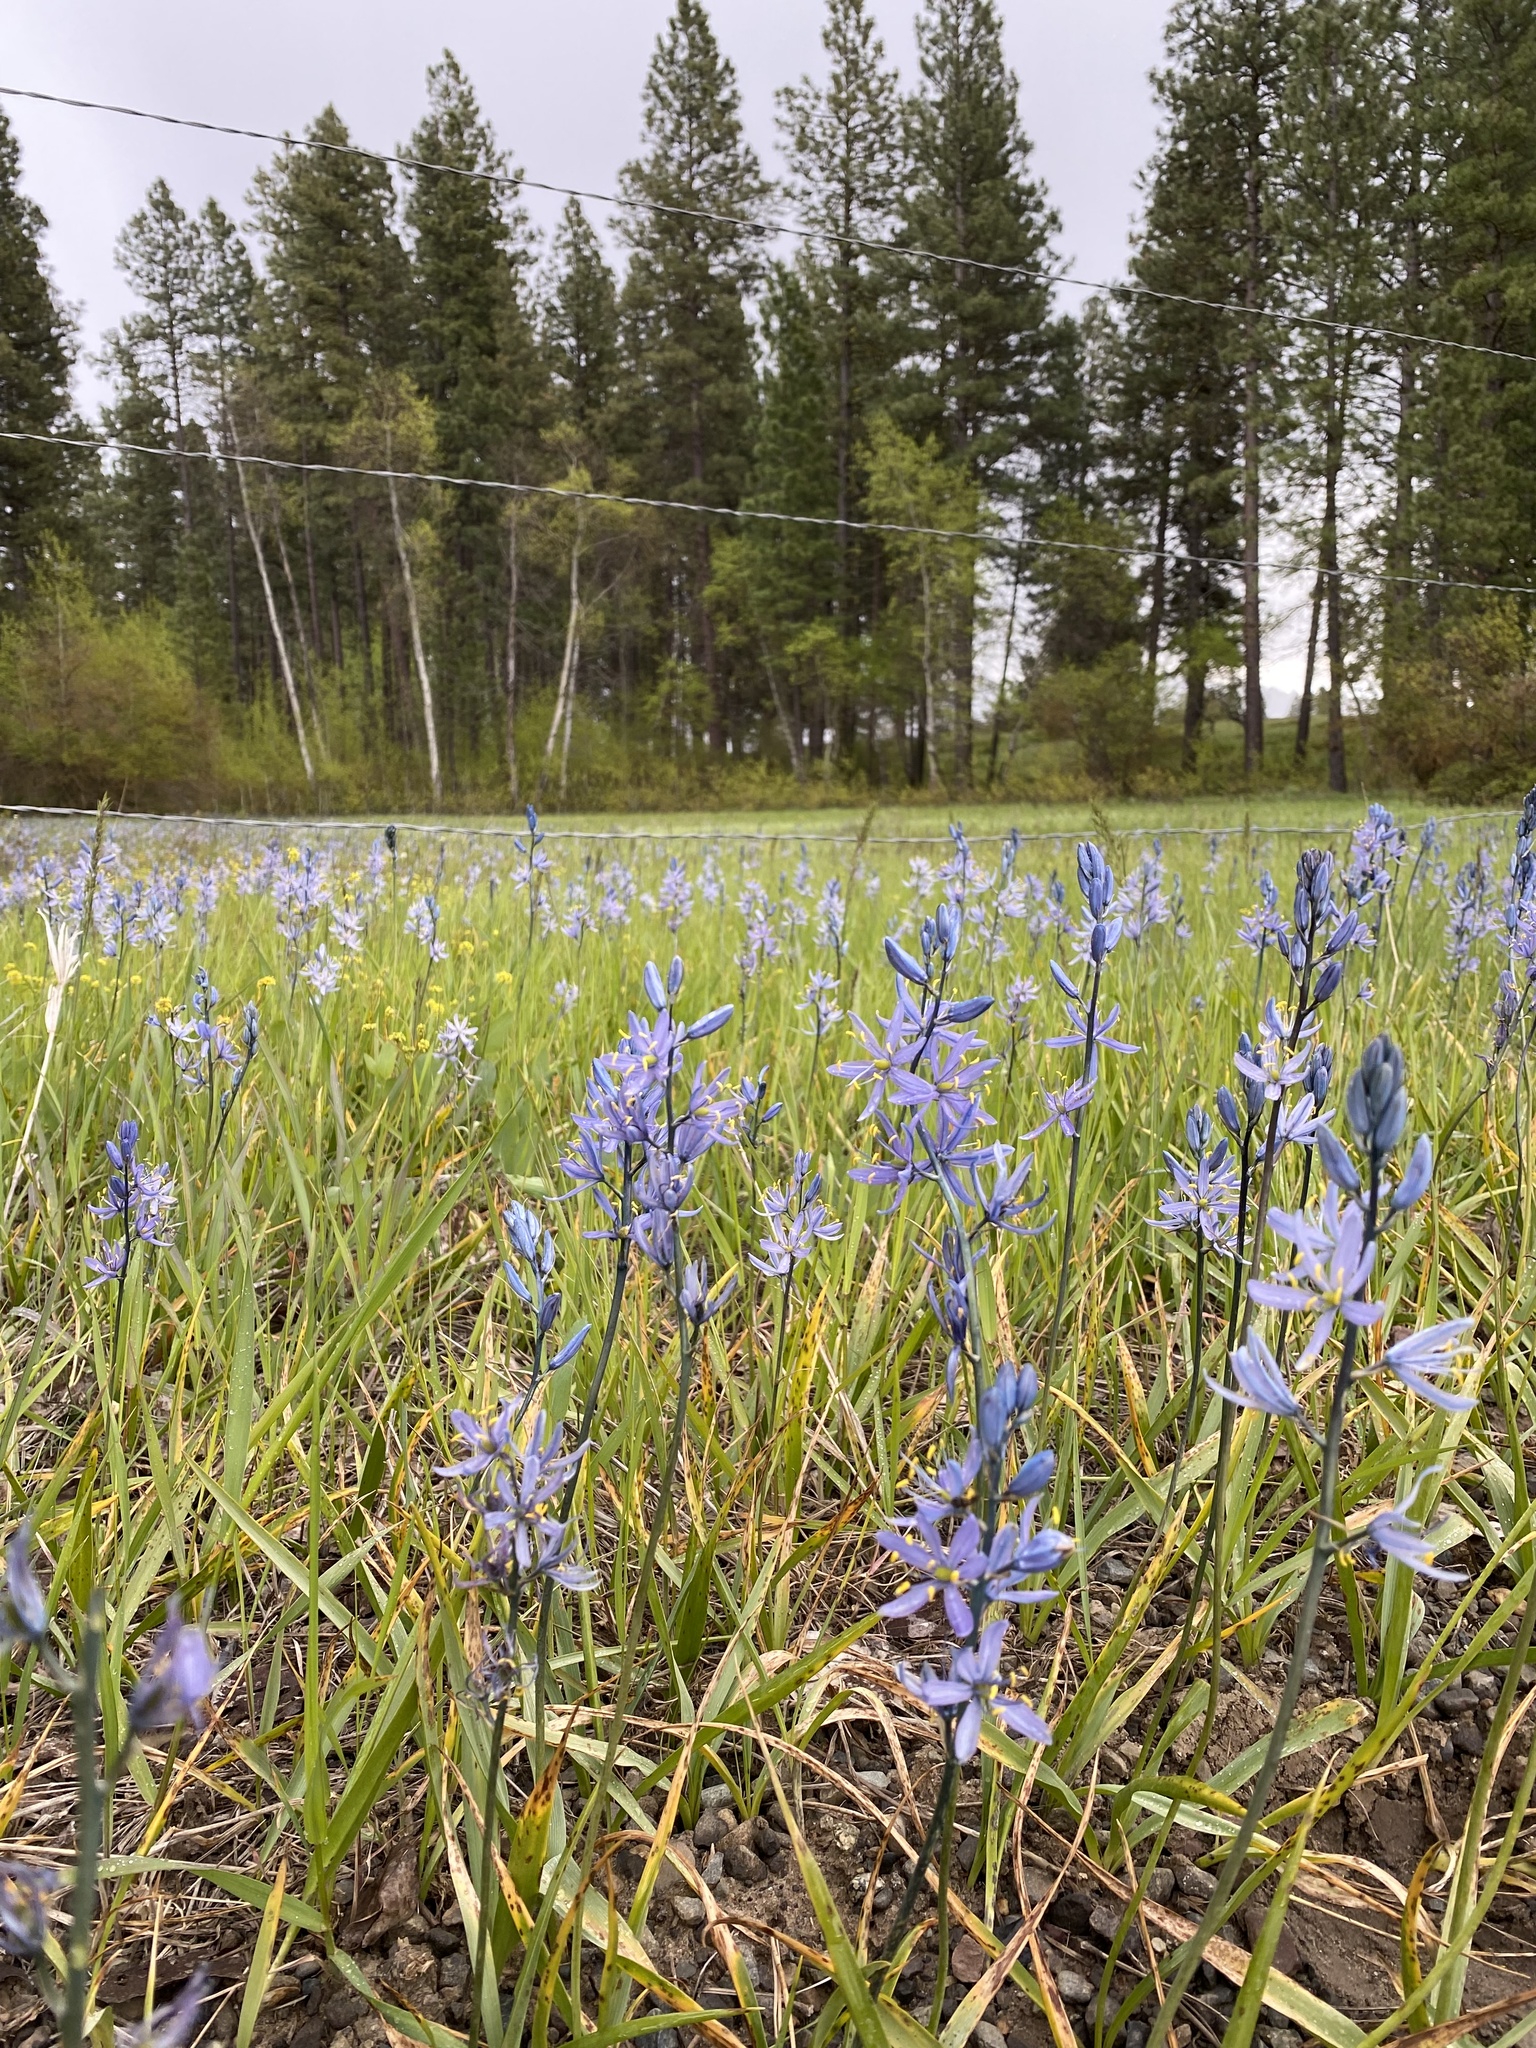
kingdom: Plantae
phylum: Tracheophyta
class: Liliopsida
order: Asparagales
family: Asparagaceae
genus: Camassia
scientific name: Camassia quamash
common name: Common camas
